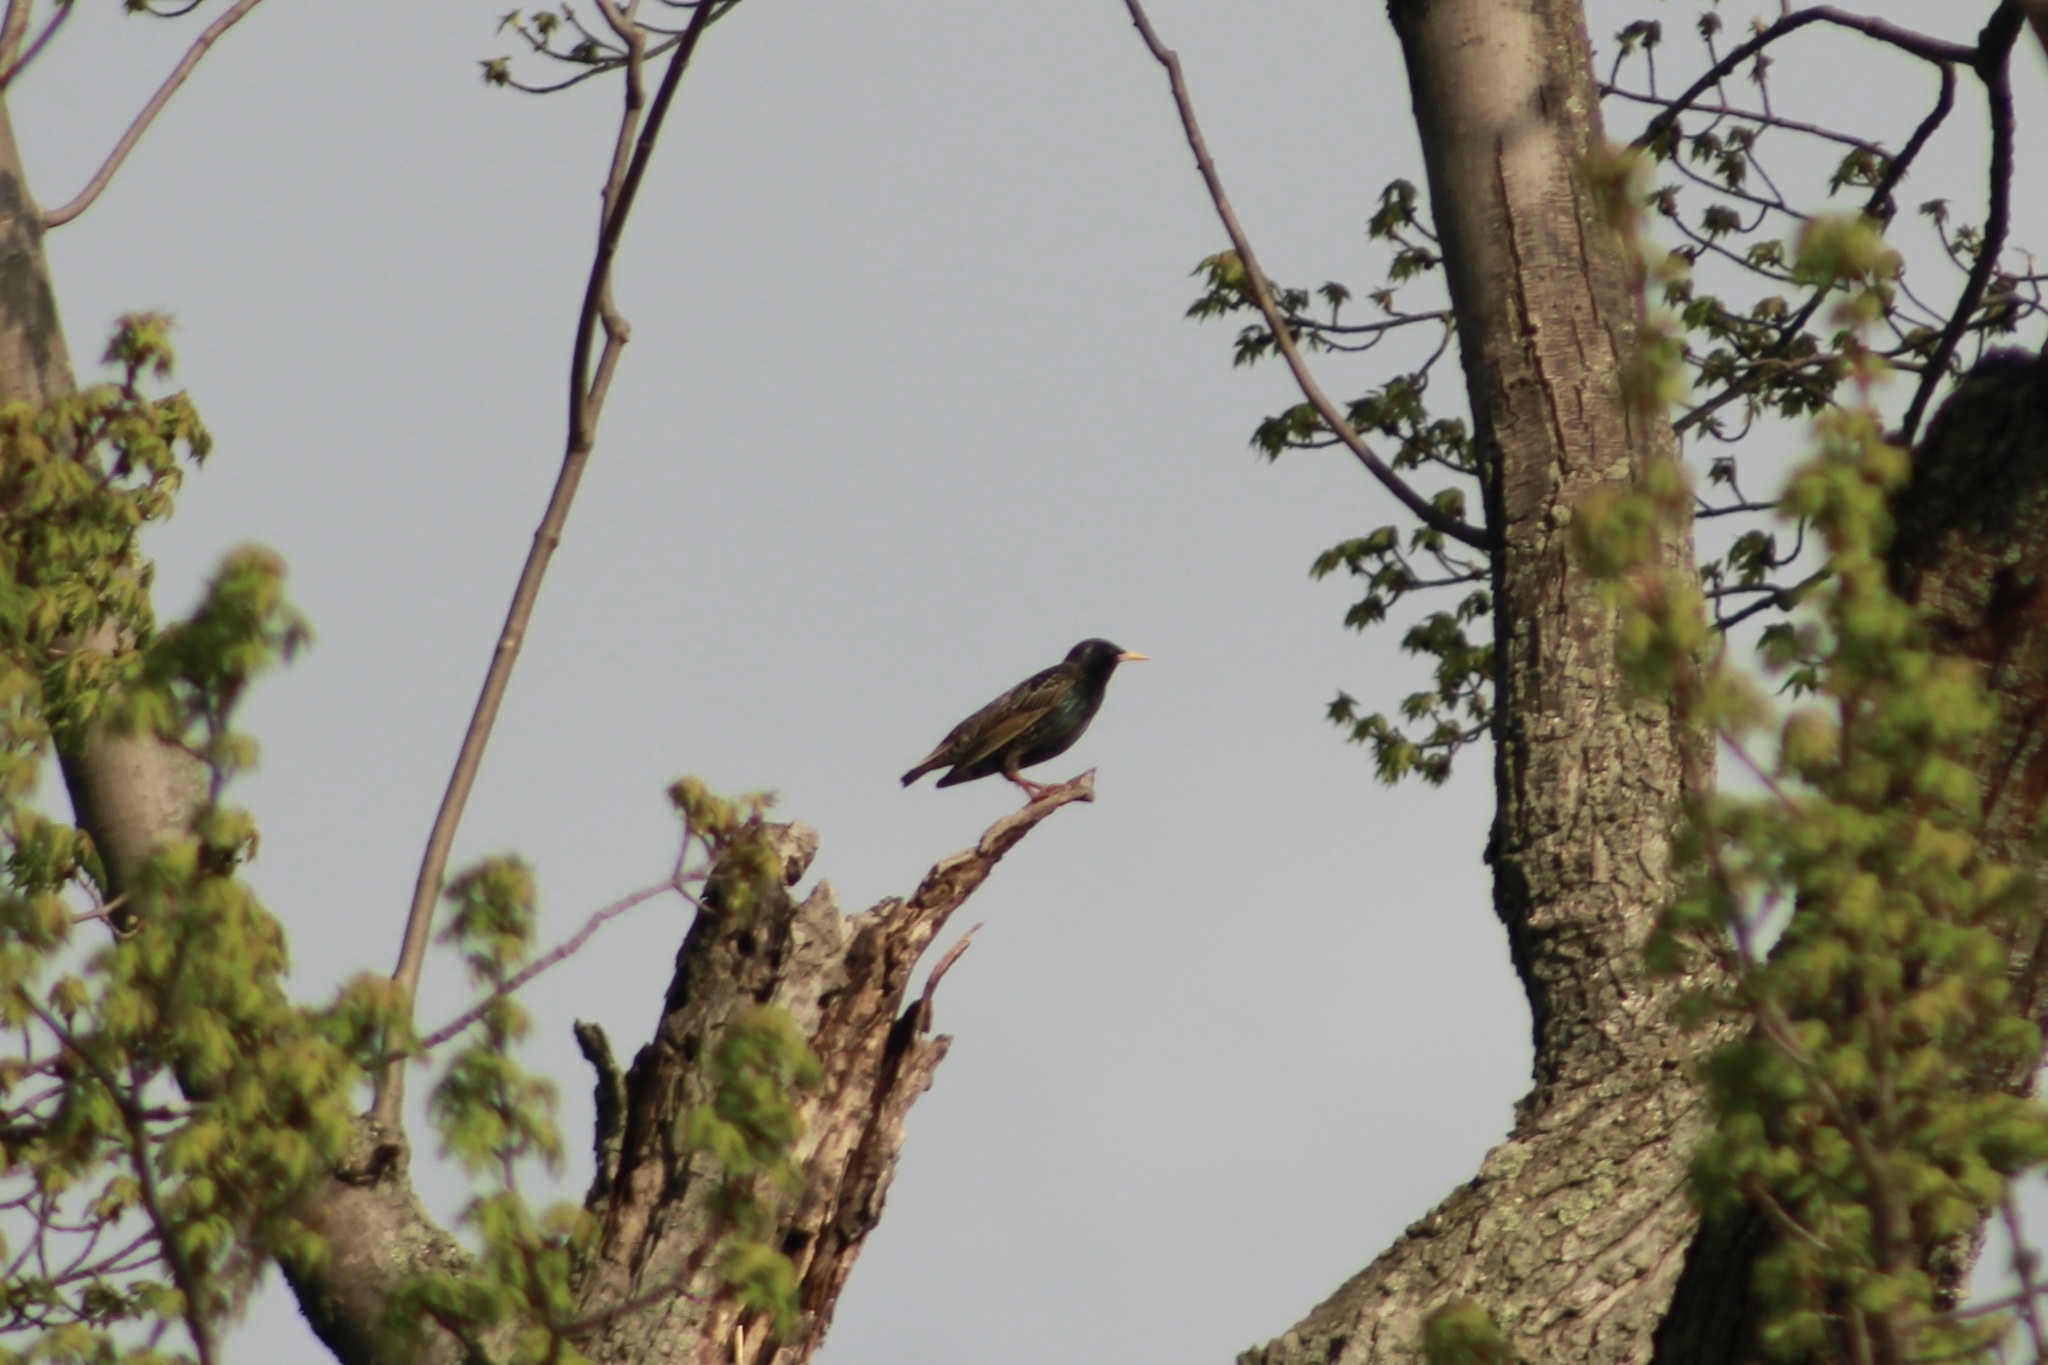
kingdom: Animalia
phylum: Chordata
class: Aves
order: Passeriformes
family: Sturnidae
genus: Sturnus
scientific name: Sturnus vulgaris
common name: Common starling
